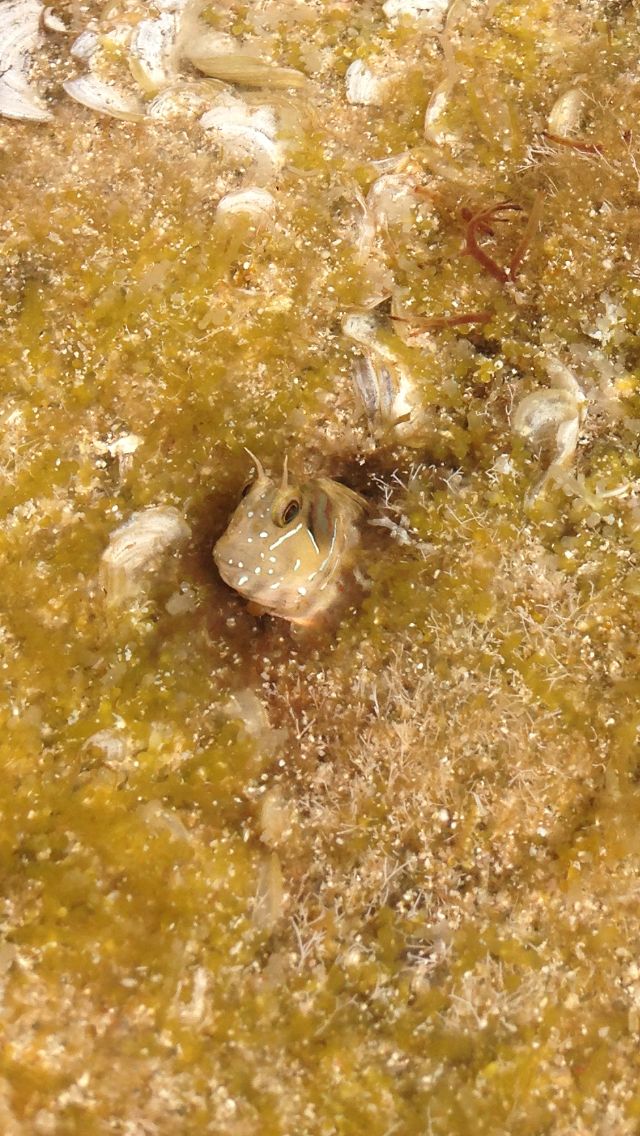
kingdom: Animalia
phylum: Chordata
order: Perciformes
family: Blenniidae
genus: Aidablennius
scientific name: Aidablennius sphynx
